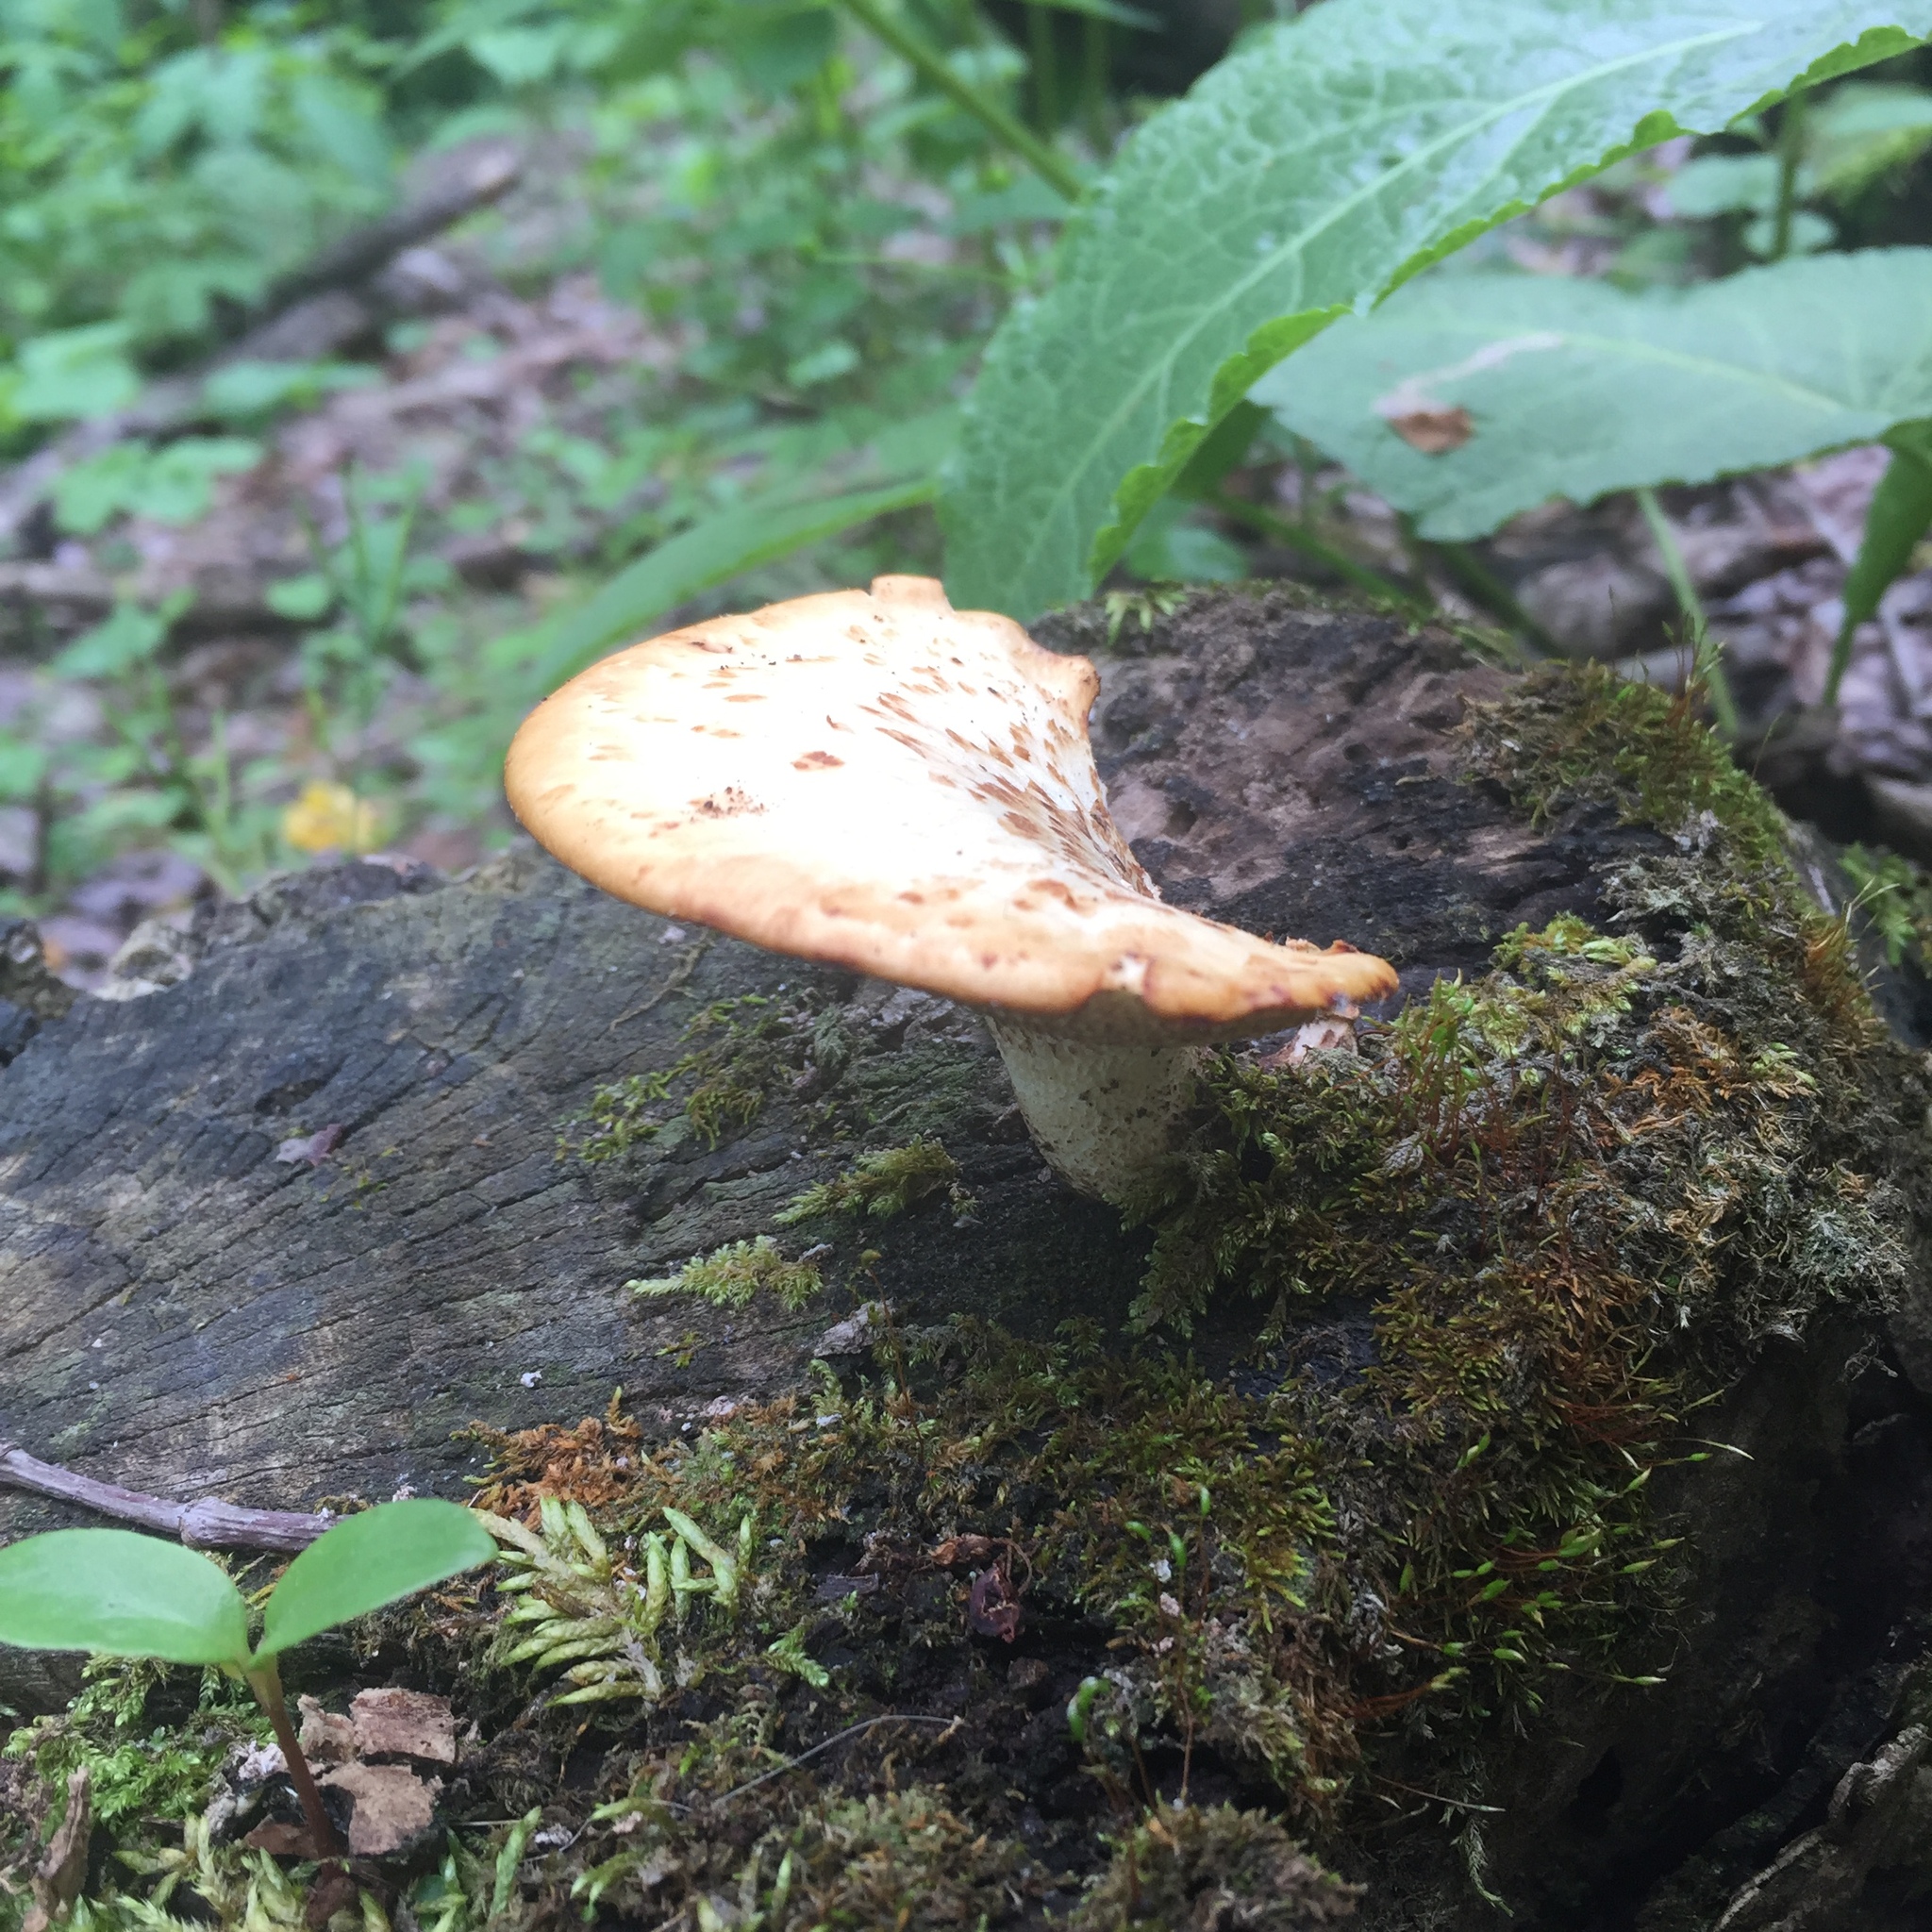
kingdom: Fungi
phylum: Basidiomycota
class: Agaricomycetes
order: Polyporales
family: Polyporaceae
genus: Cerioporus
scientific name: Cerioporus squamosus
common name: Dryad's saddle
